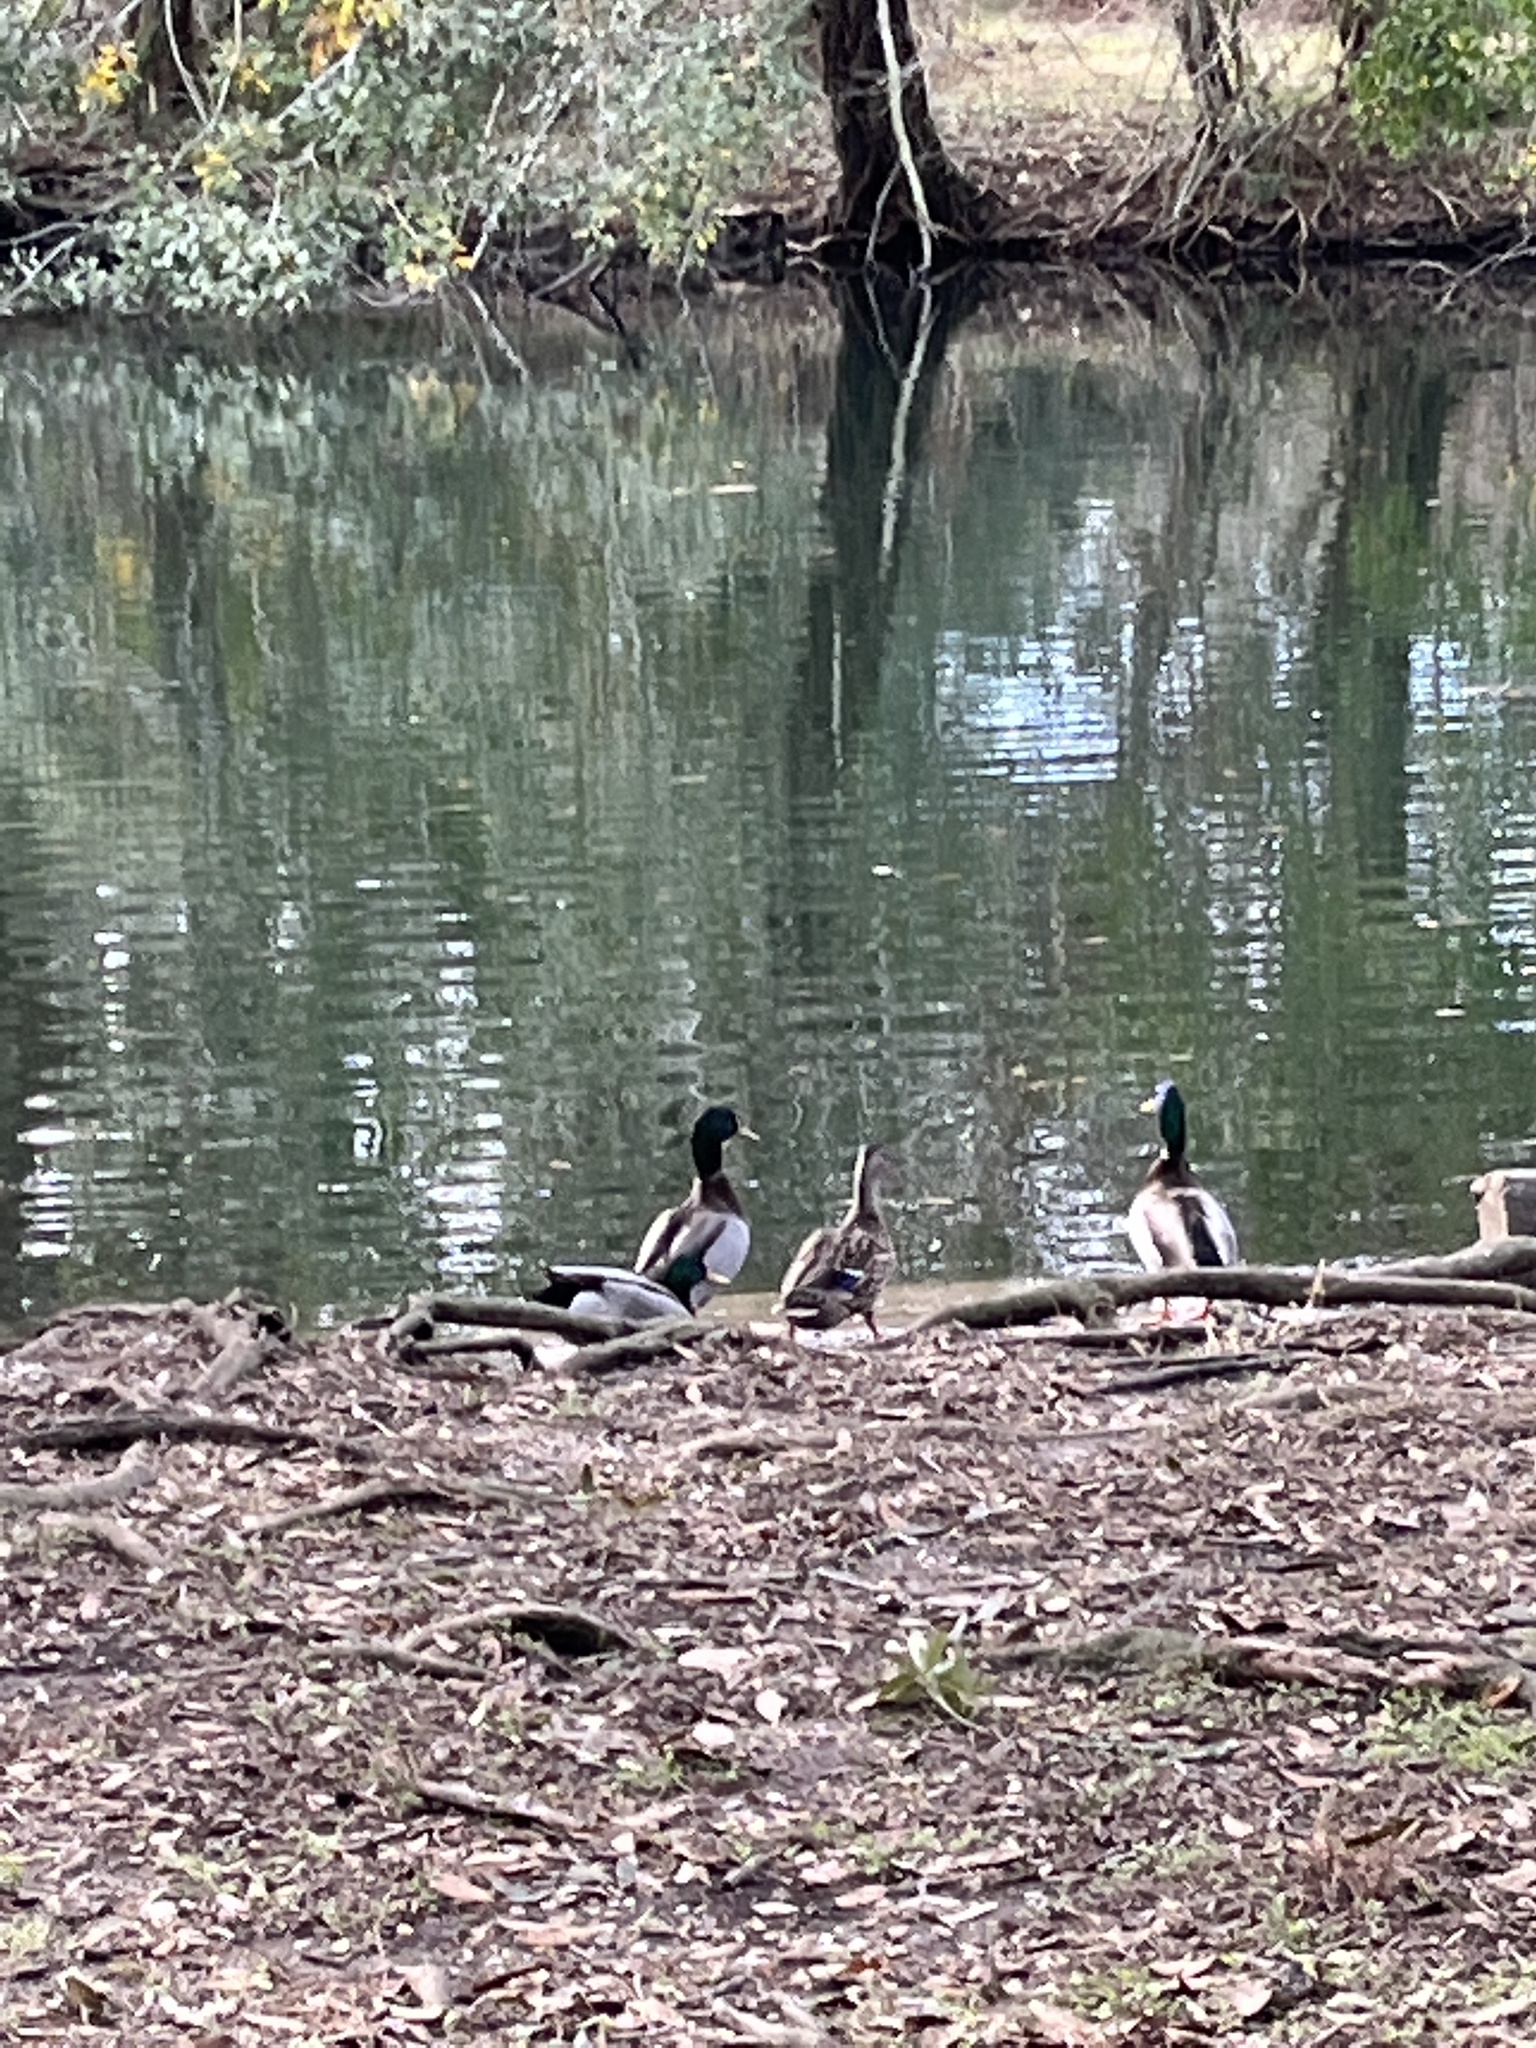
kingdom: Animalia
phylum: Chordata
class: Aves
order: Anseriformes
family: Anatidae
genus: Anas
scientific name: Anas platyrhynchos
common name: Mallard
